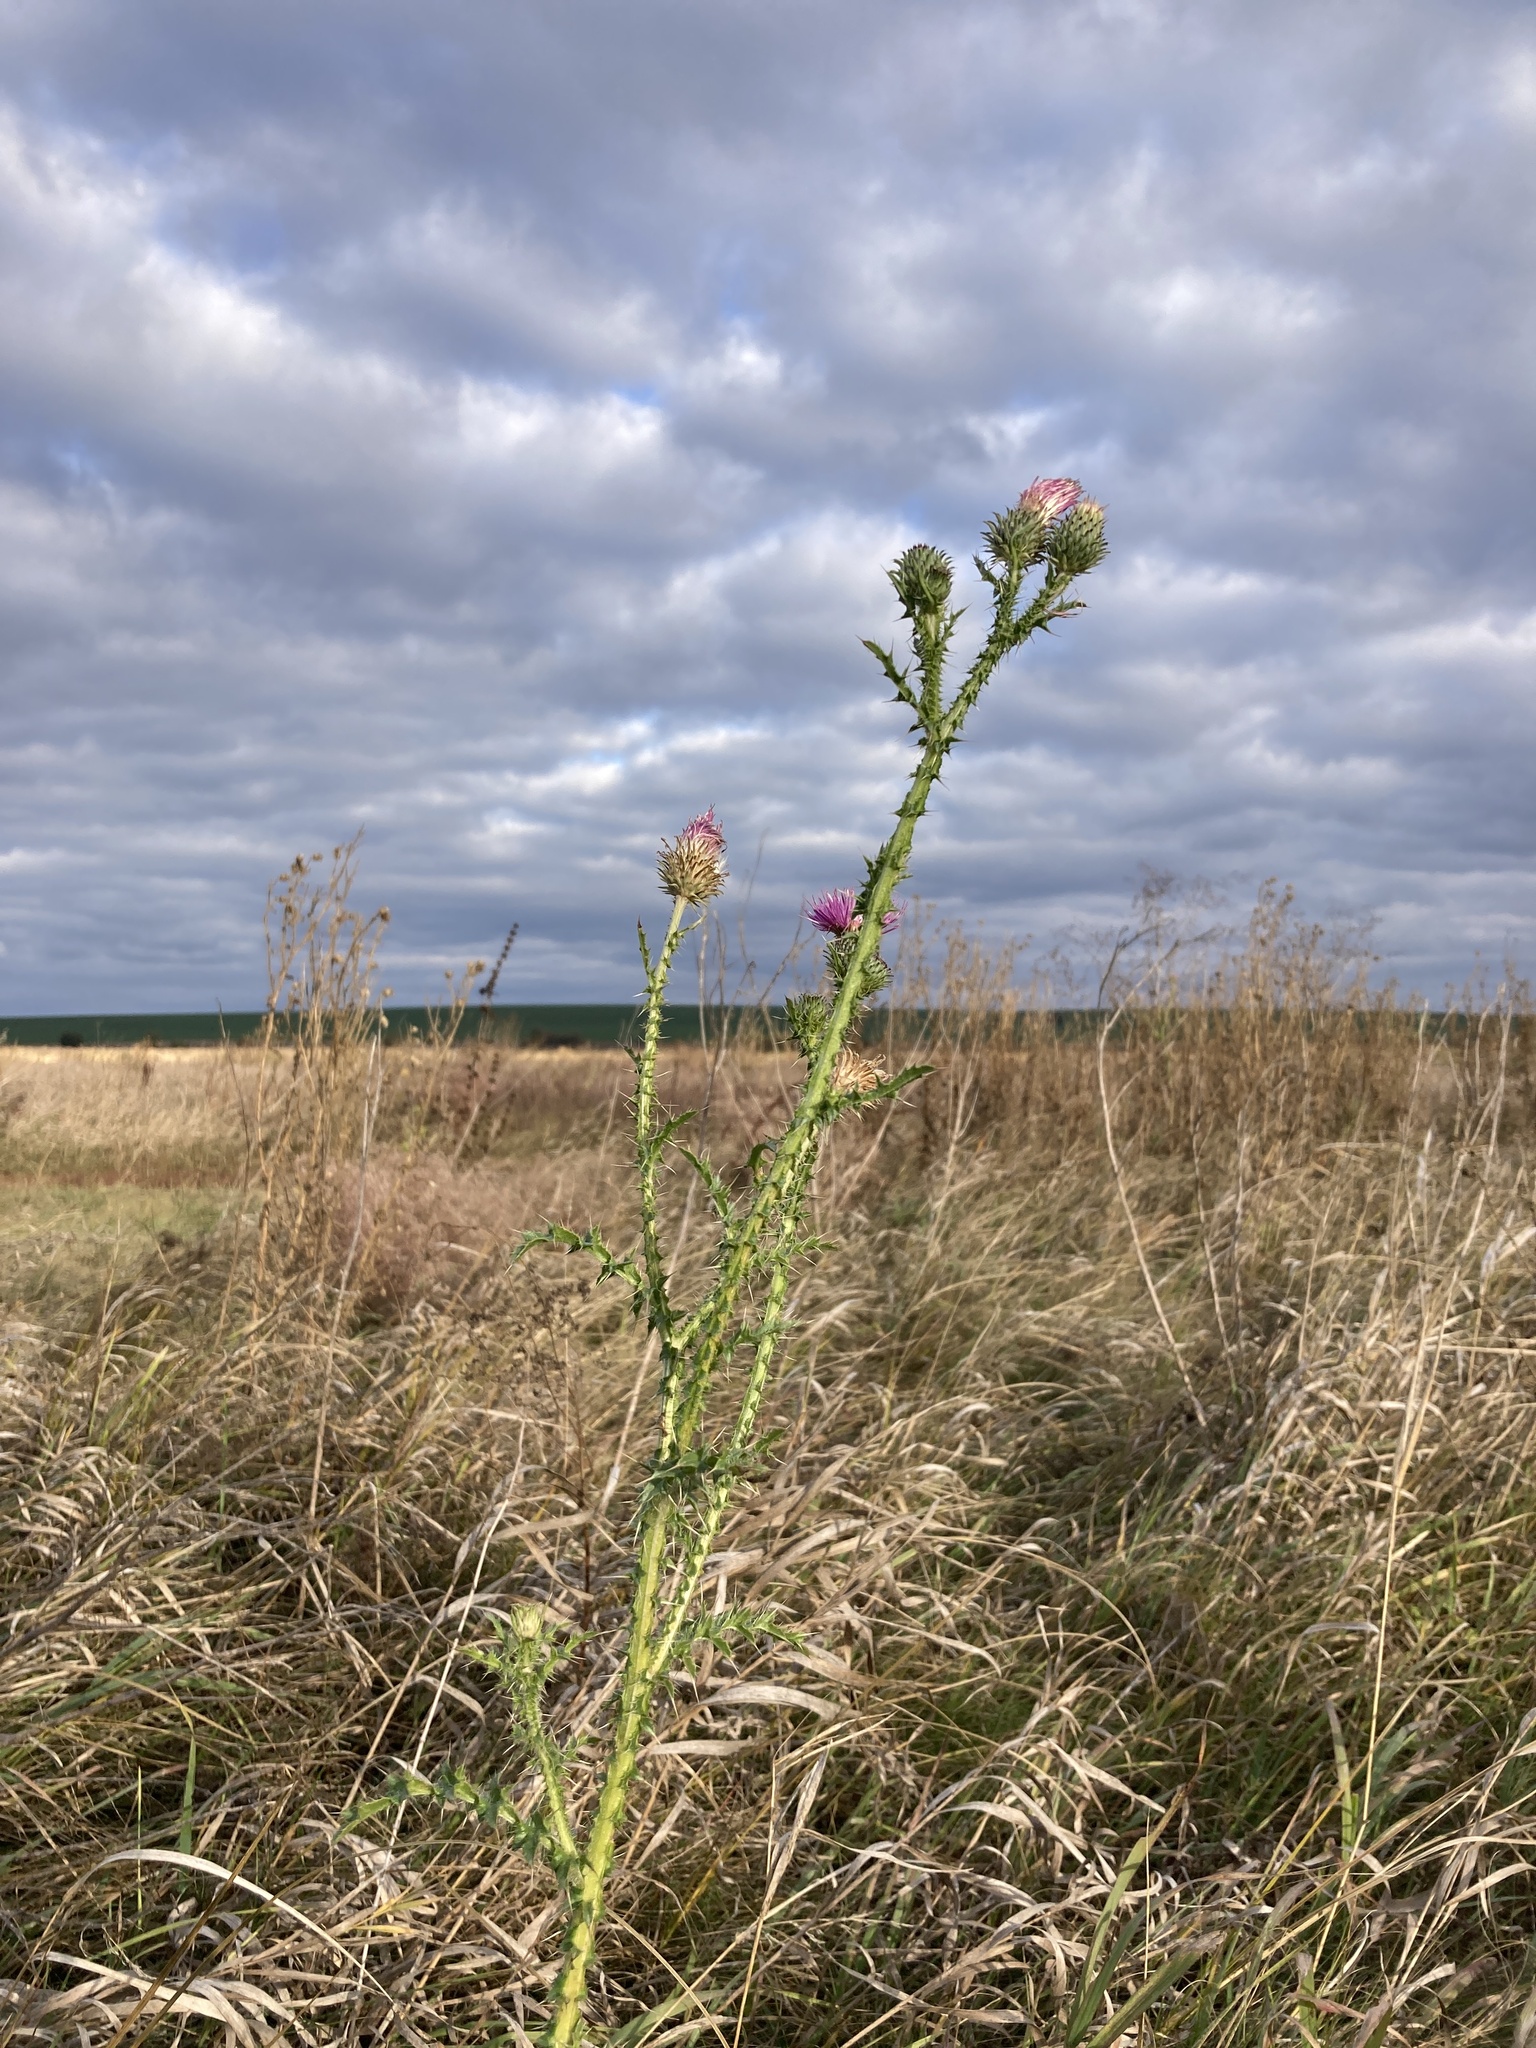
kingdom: Plantae
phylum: Tracheophyta
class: Magnoliopsida
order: Asterales
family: Asteraceae
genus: Carduus
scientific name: Carduus acanthoides
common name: Plumeless thistle
